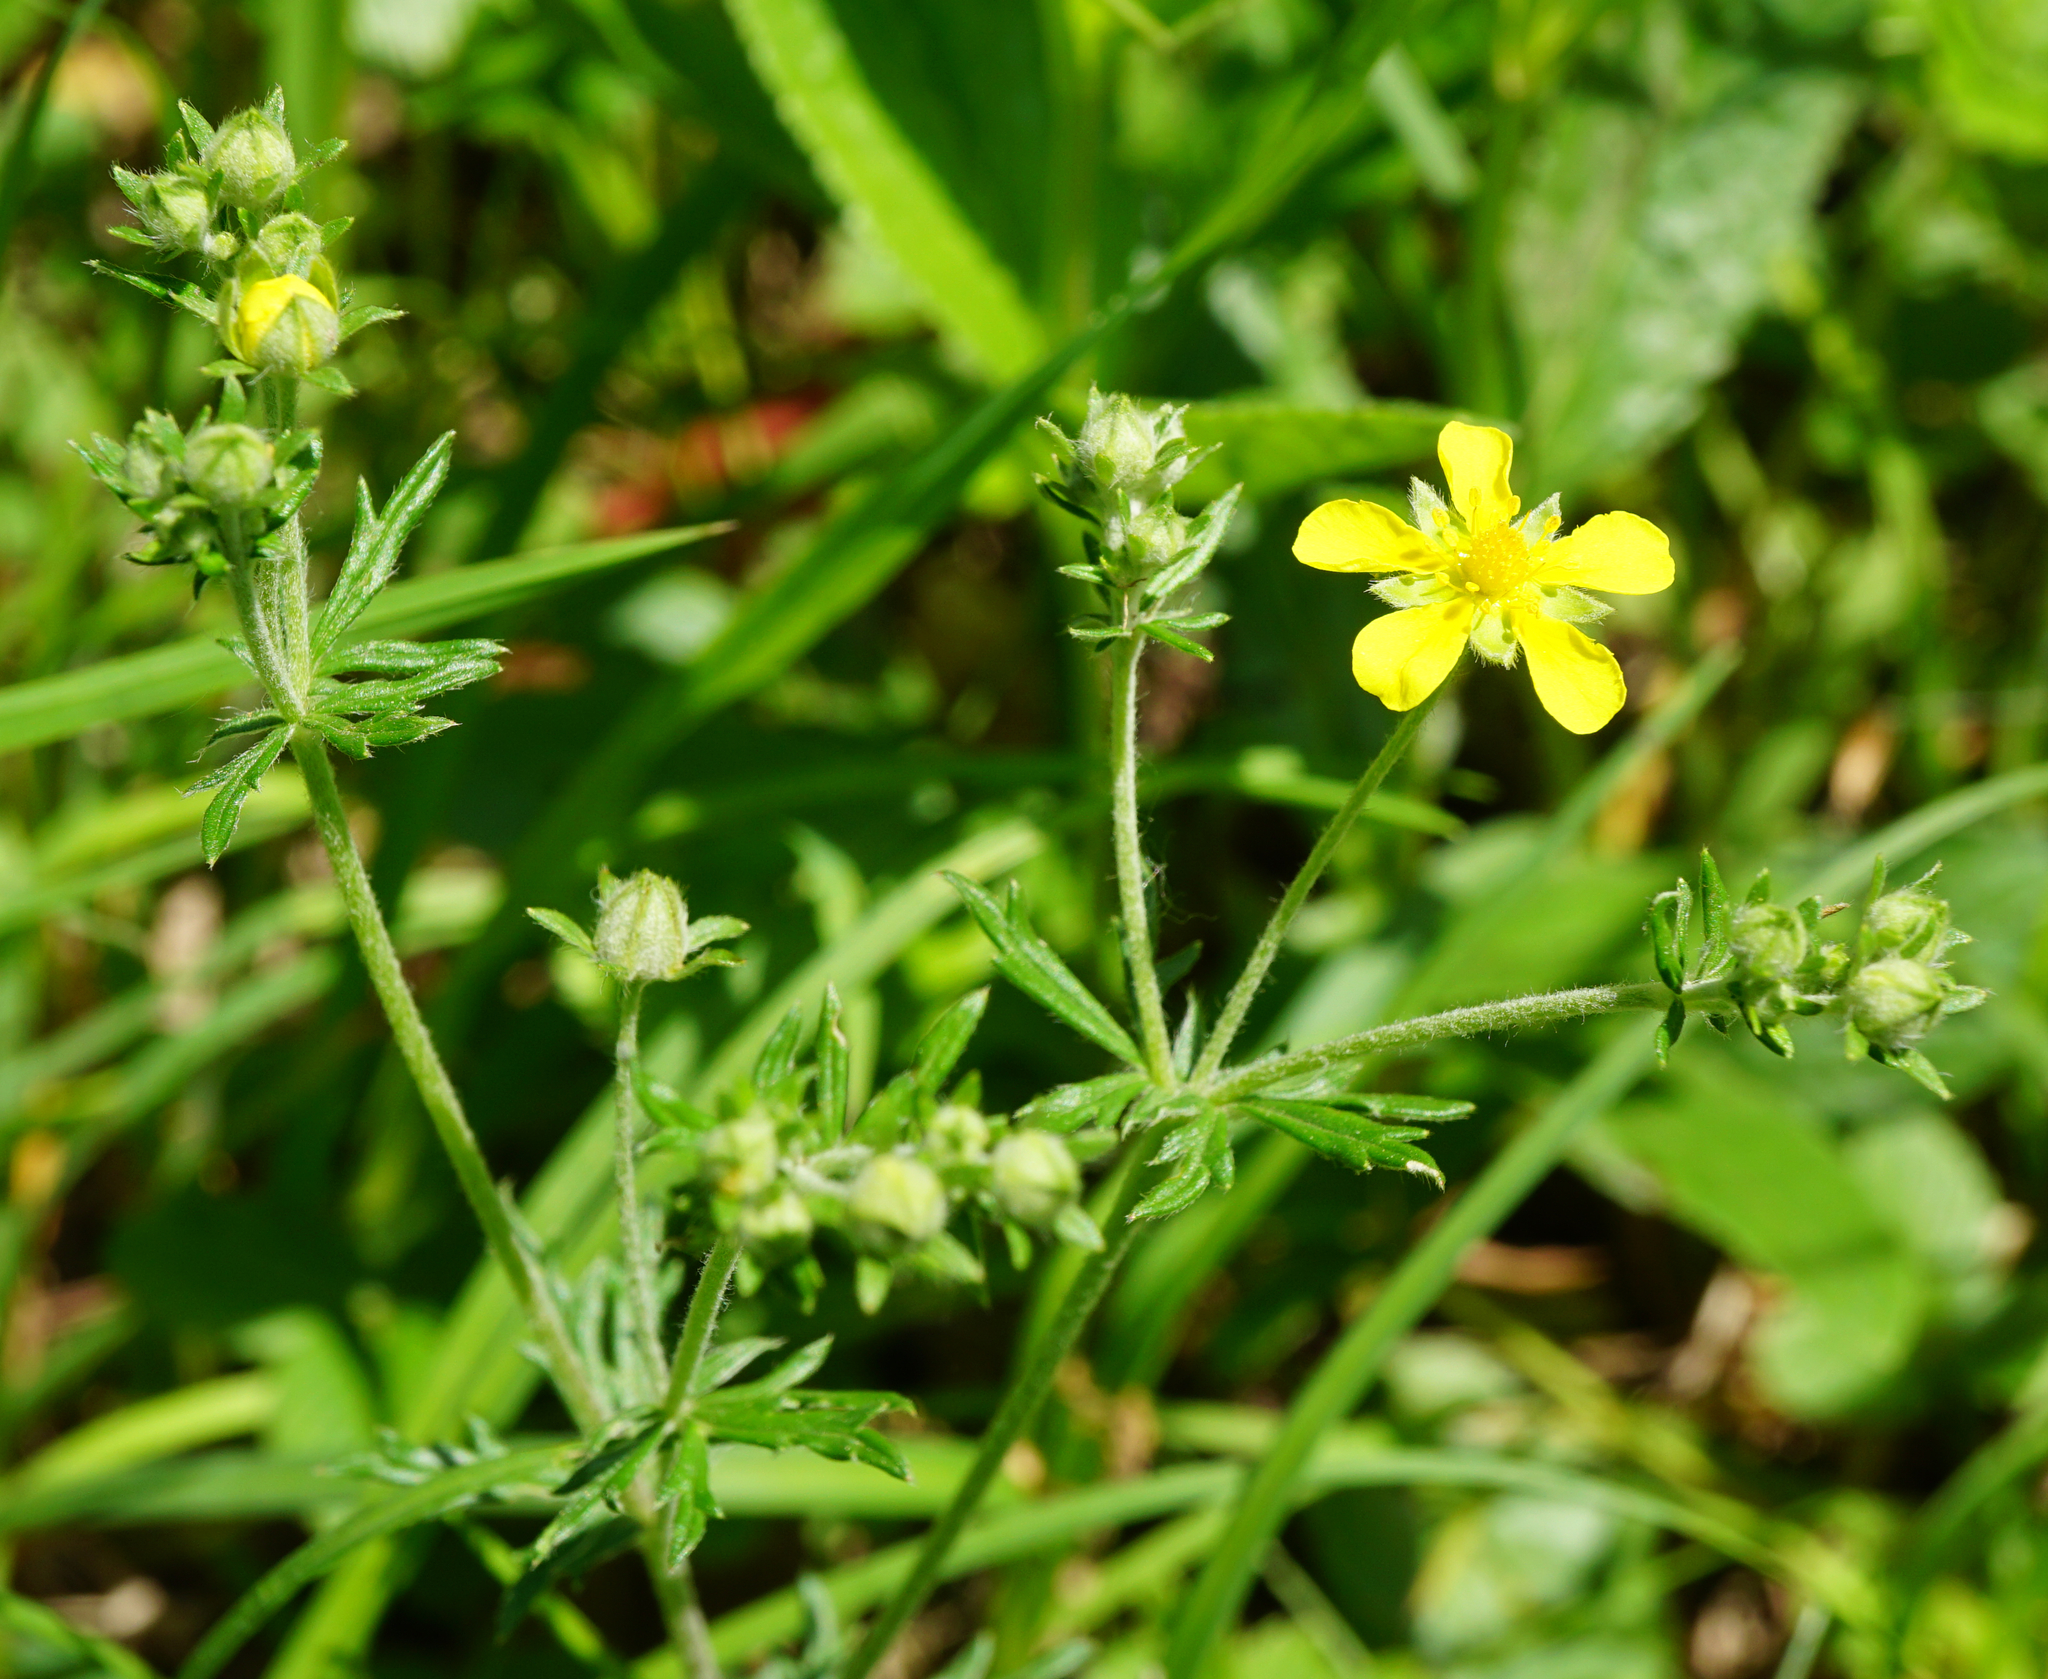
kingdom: Plantae
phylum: Tracheophyta
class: Magnoliopsida
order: Rosales
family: Rosaceae
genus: Potentilla
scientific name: Potentilla argentea
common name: Hoary cinquefoil
